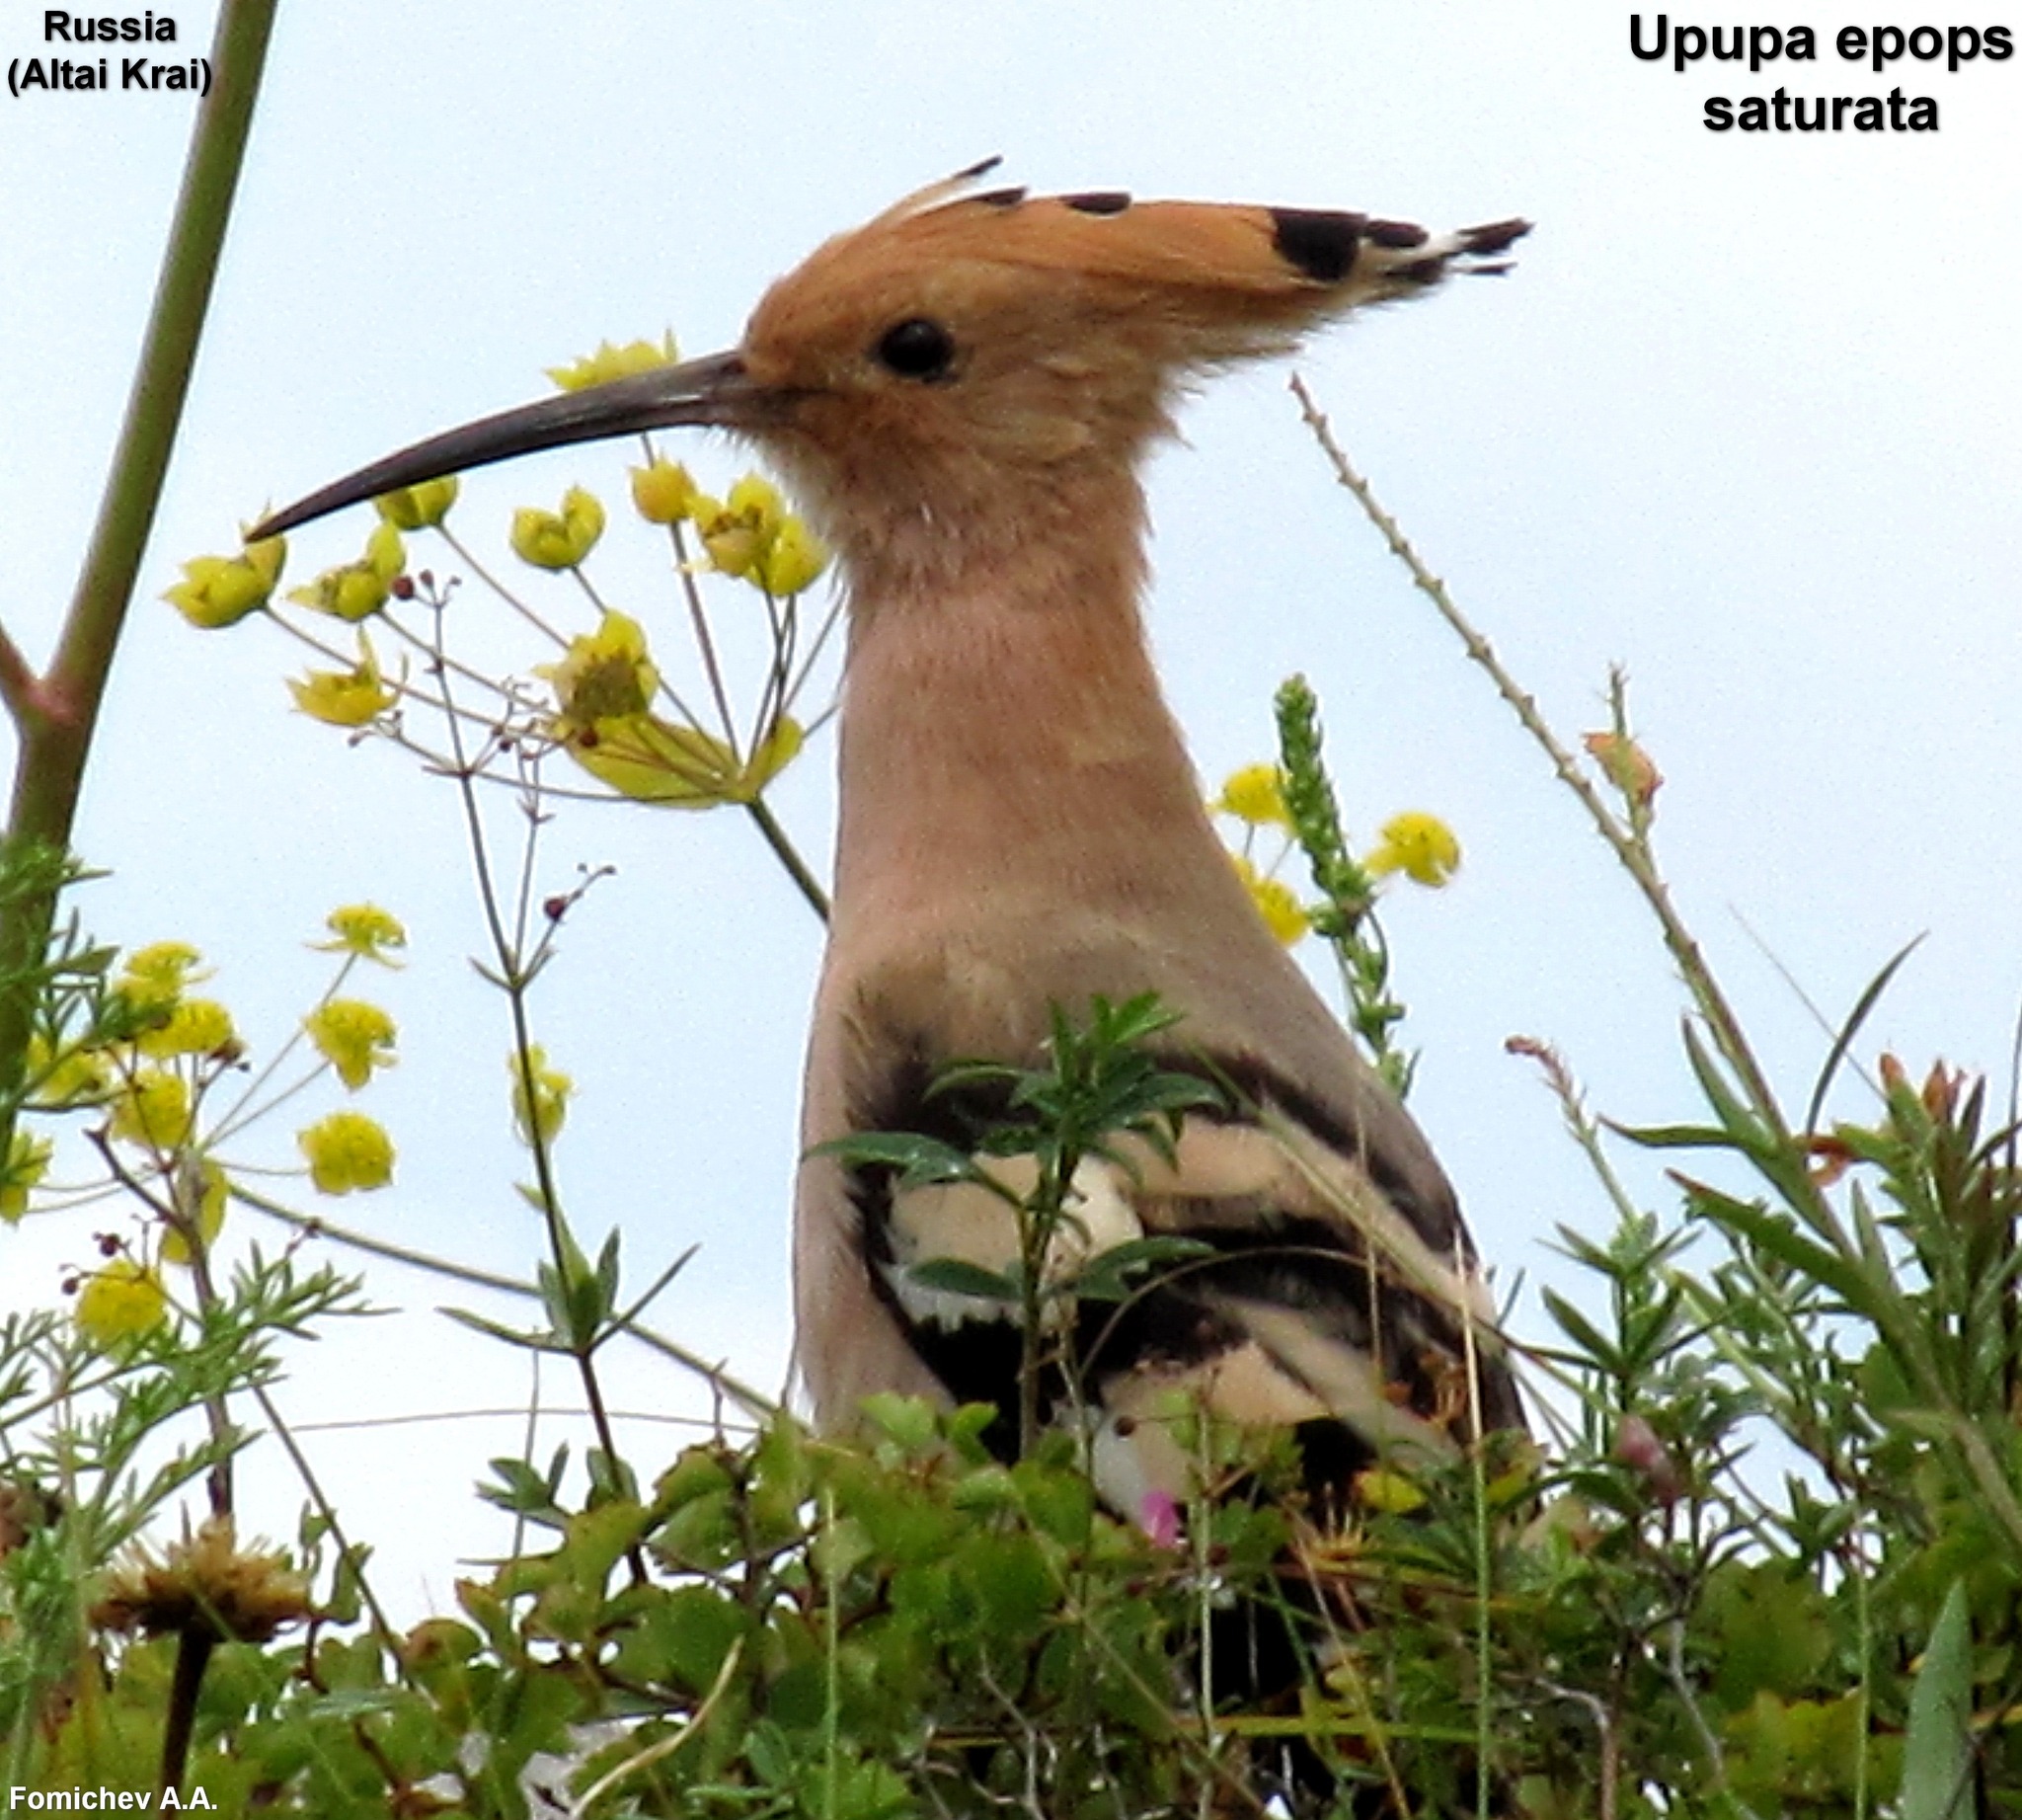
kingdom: Animalia
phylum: Chordata
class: Aves
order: Bucerotiformes
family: Upupidae
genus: Upupa
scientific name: Upupa epops
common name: Eurasian hoopoe
